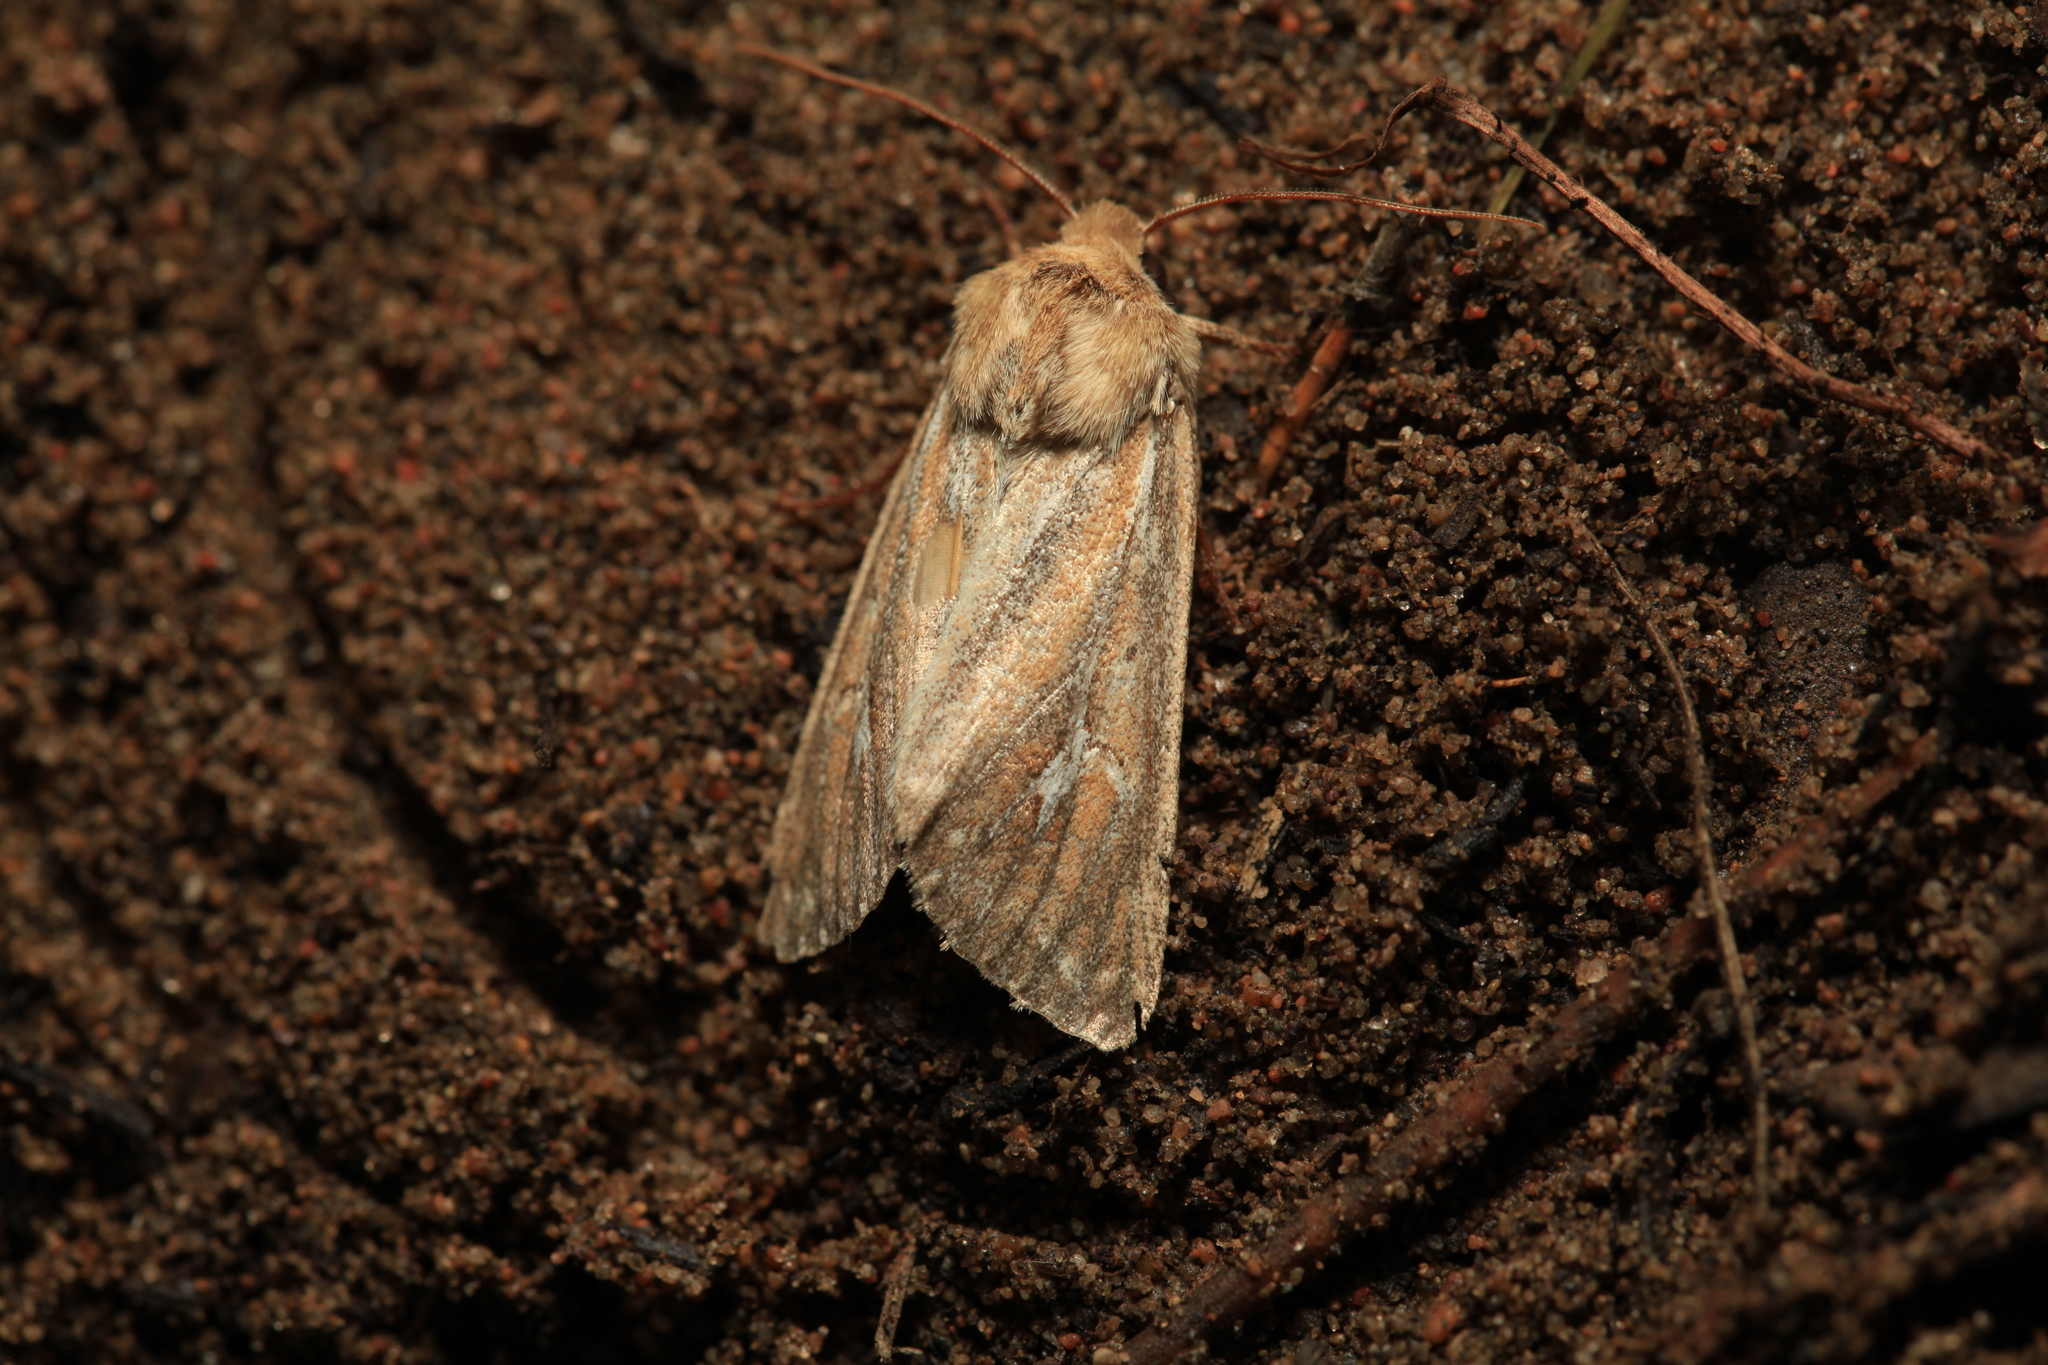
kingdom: Animalia
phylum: Arthropoda
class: Insecta
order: Lepidoptera
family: Noctuidae
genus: Conisania
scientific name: Conisania leineri
